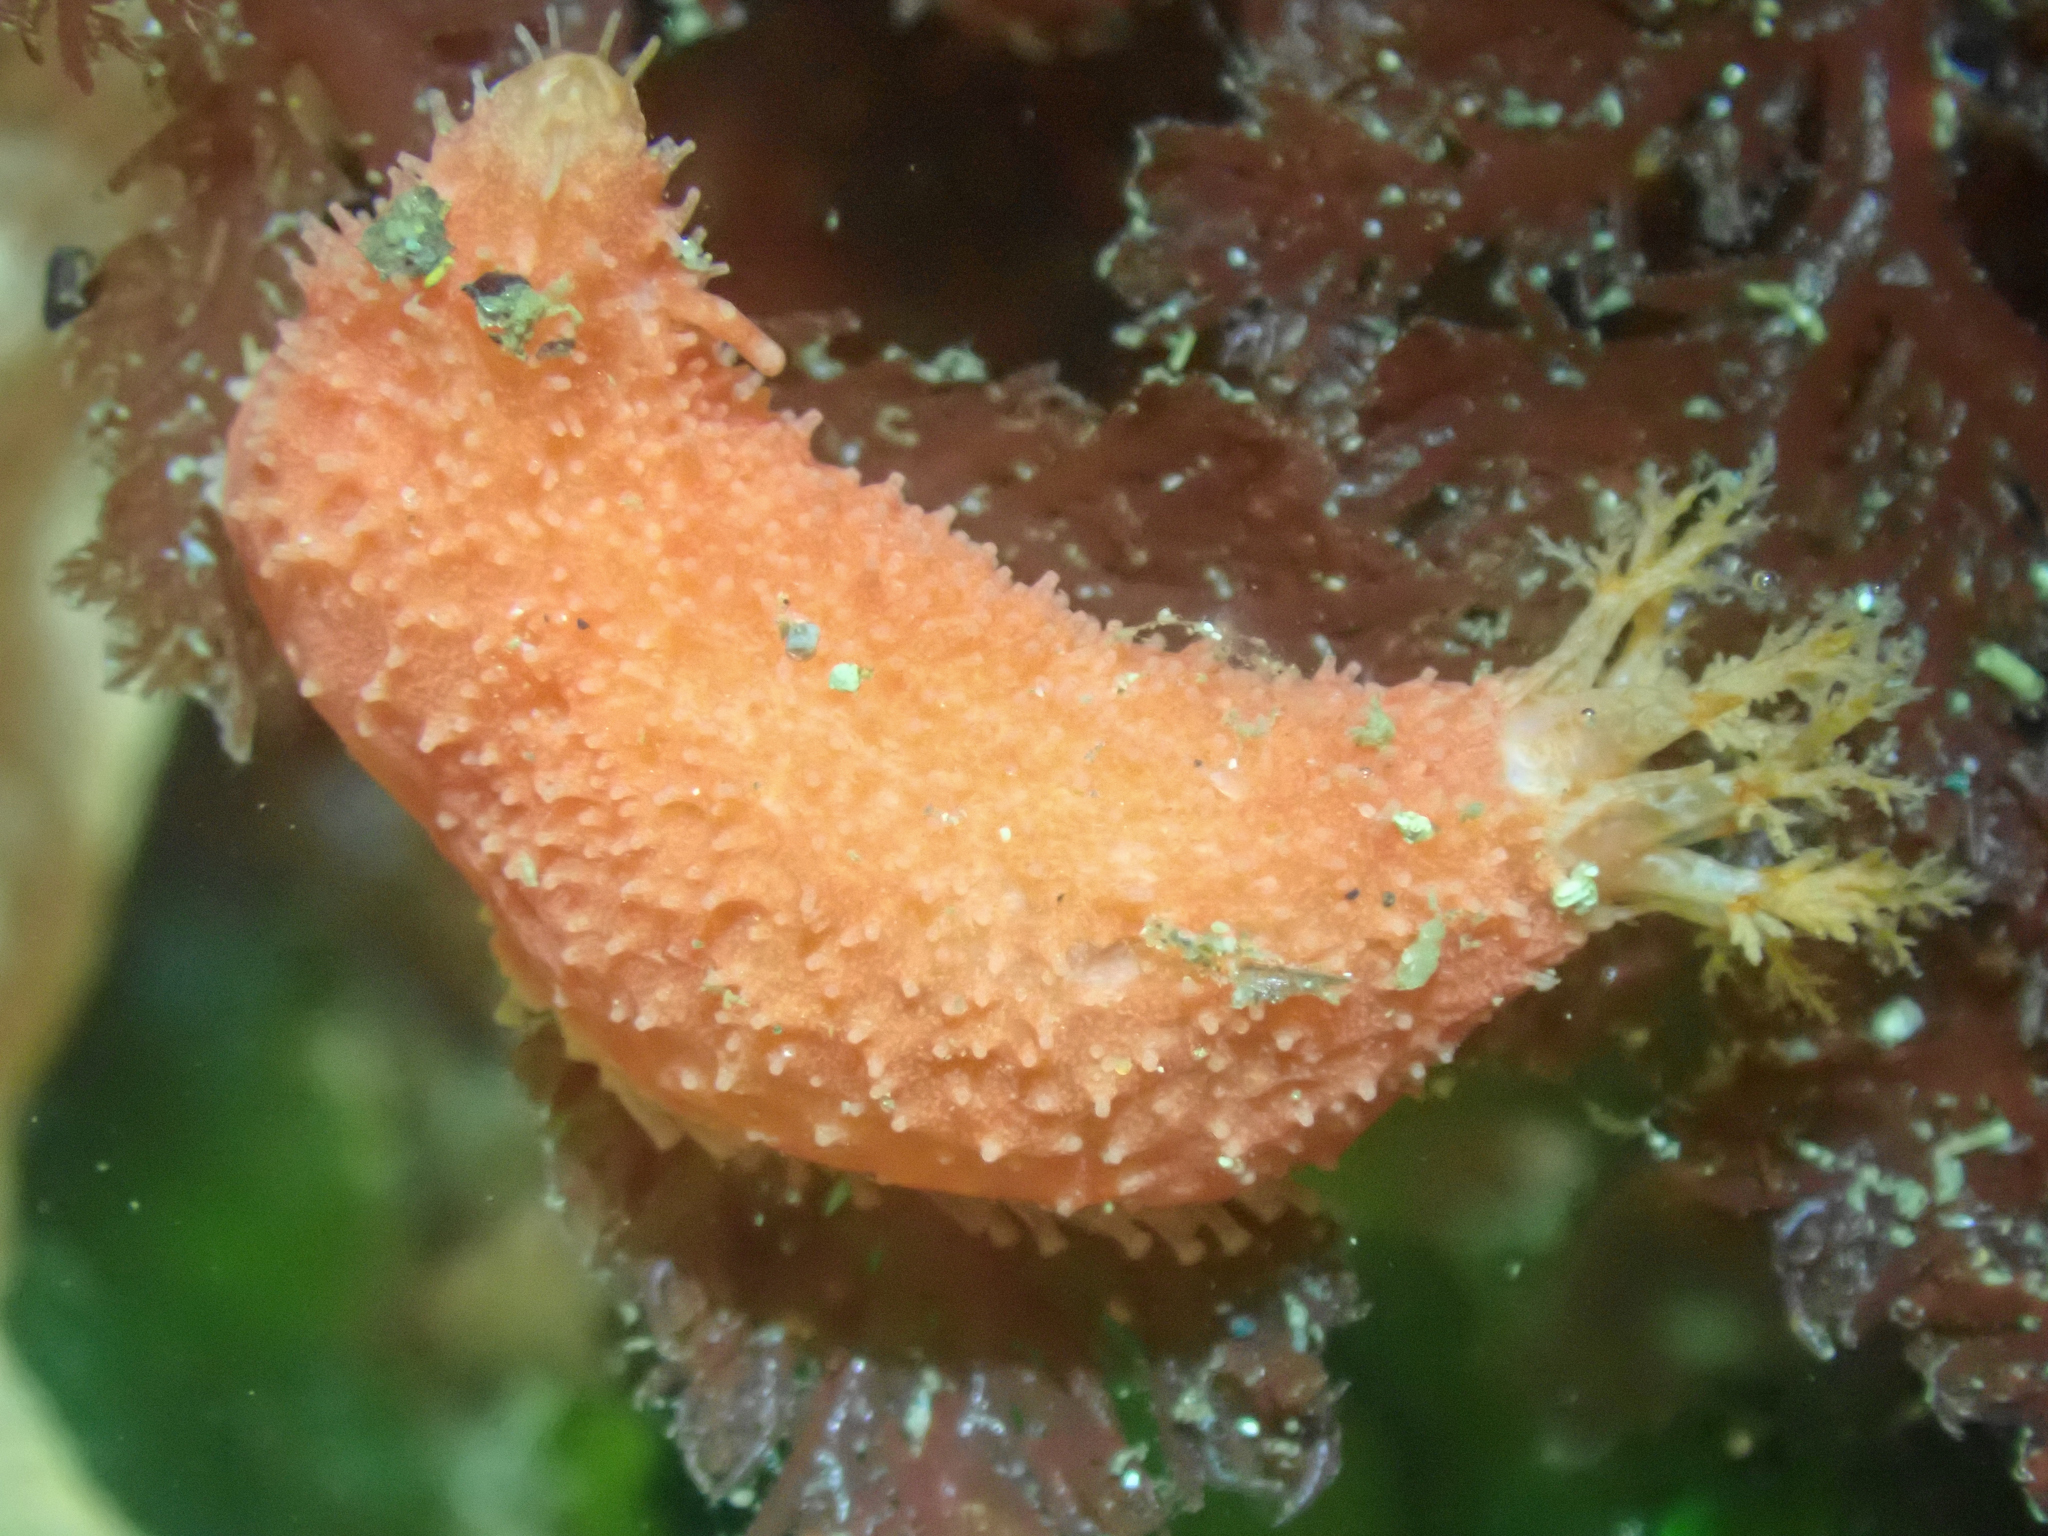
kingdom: Animalia
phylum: Echinodermata
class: Holothuroidea
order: Dendrochirotida
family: Psolidae
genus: Lissothuria
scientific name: Lissothuria nutriens
